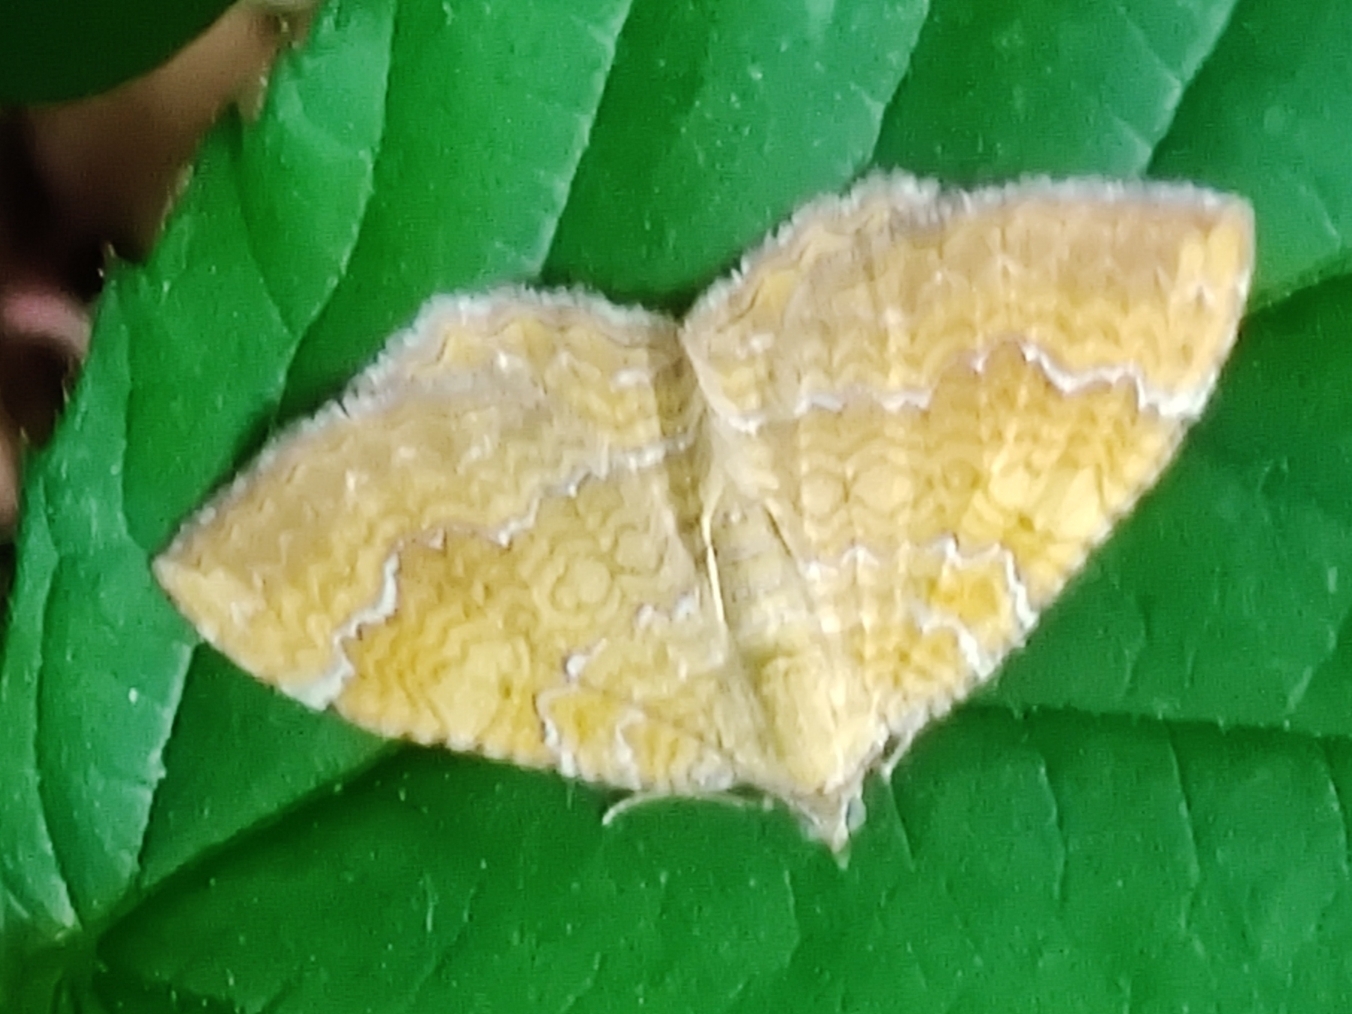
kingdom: Animalia
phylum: Arthropoda
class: Insecta
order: Lepidoptera
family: Geometridae
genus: Camptogramma
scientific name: Camptogramma bilineata
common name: Yellow shell
